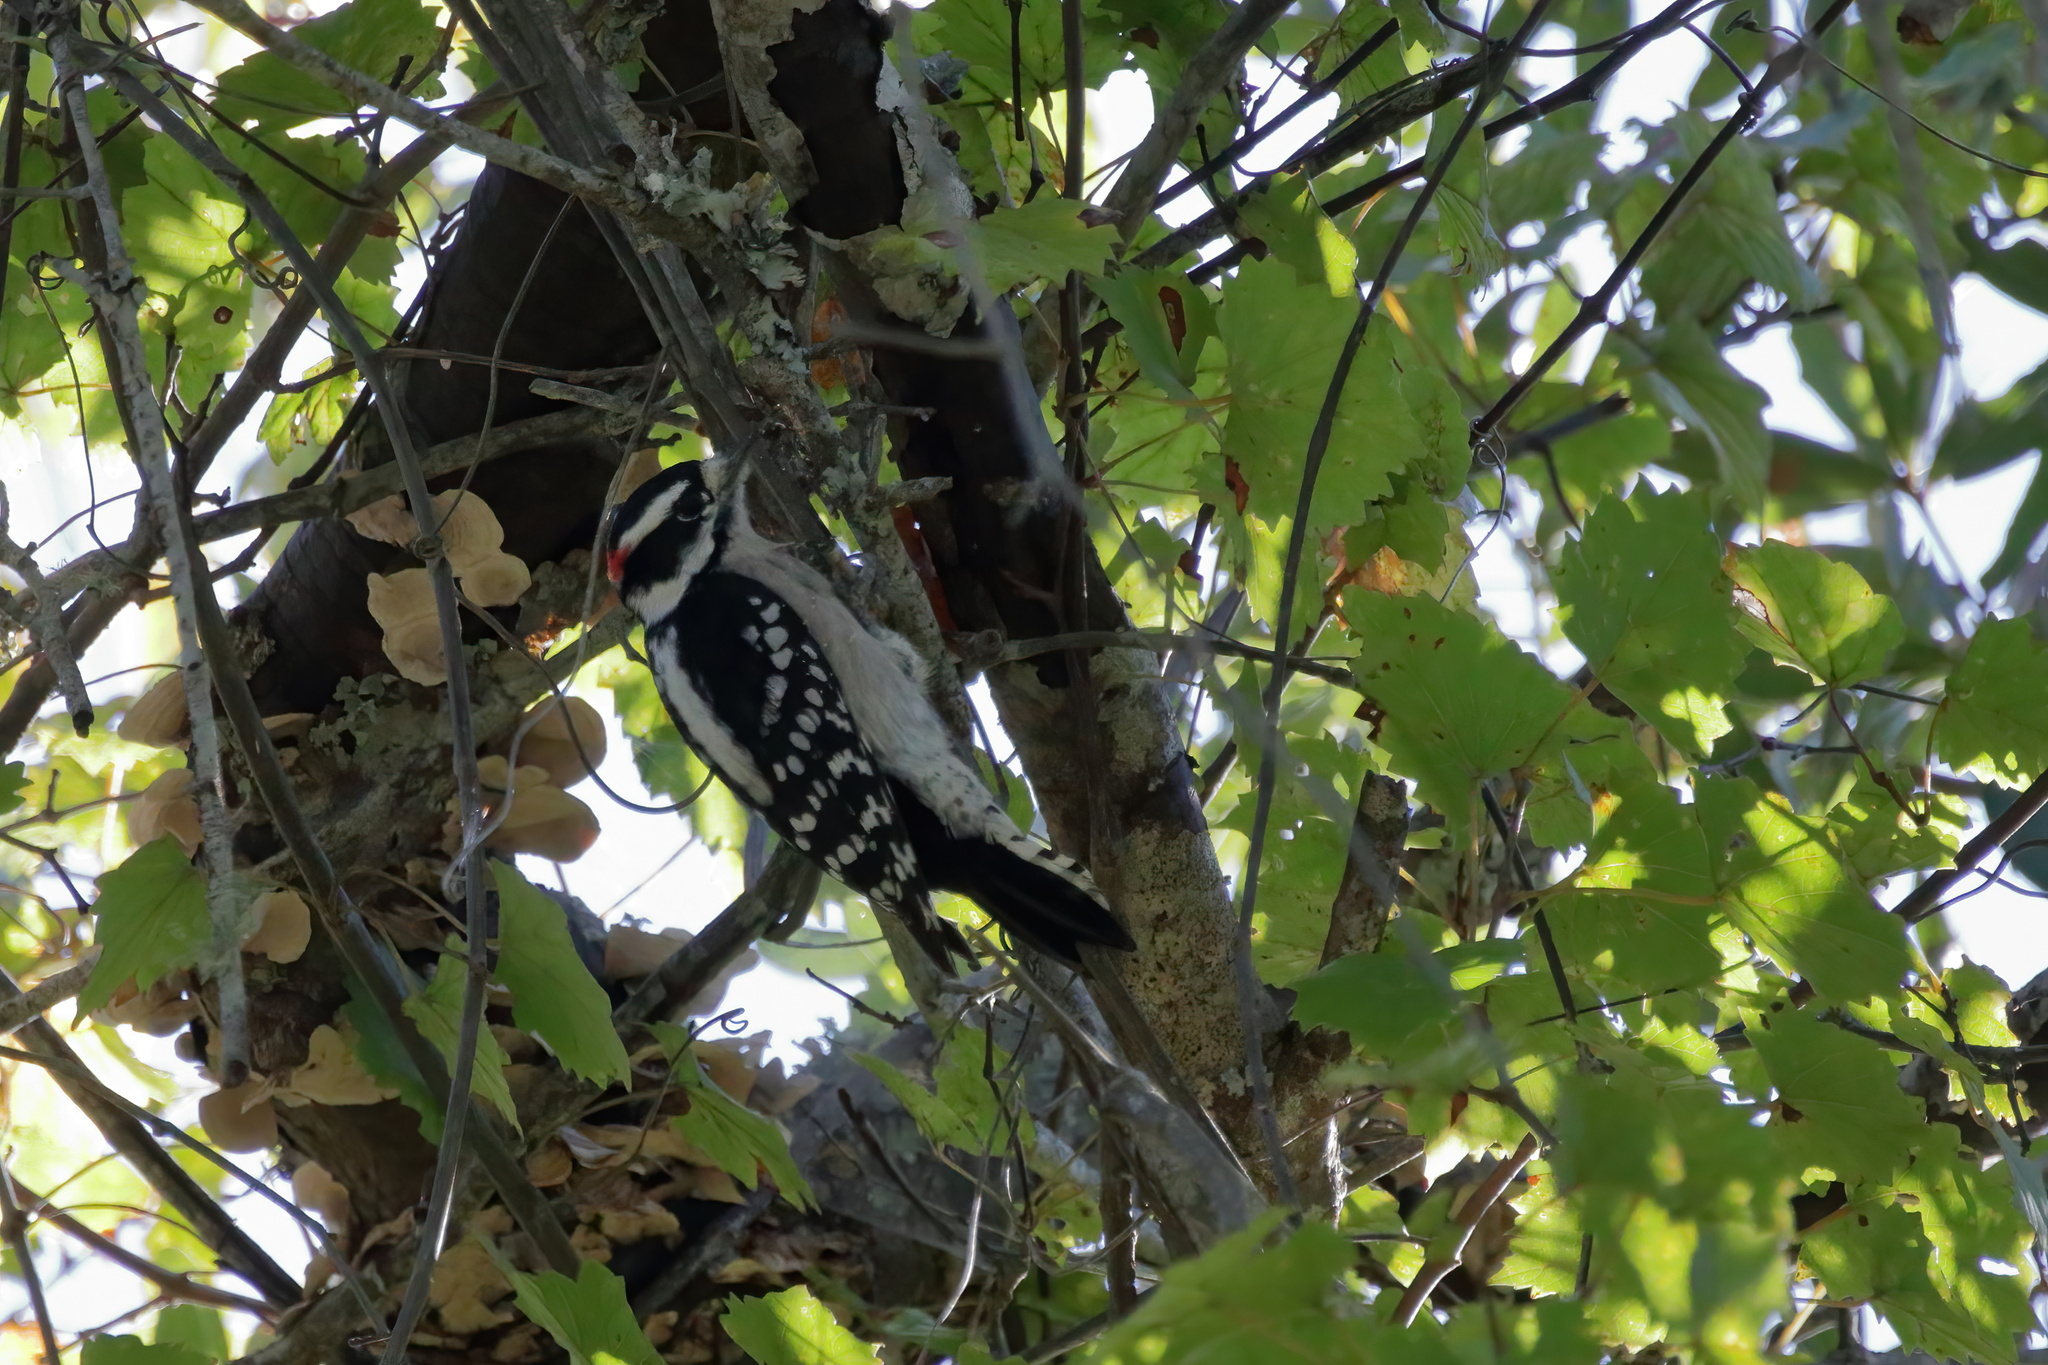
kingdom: Animalia
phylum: Chordata
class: Aves
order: Piciformes
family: Picidae
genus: Dryobates
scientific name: Dryobates pubescens
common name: Downy woodpecker
